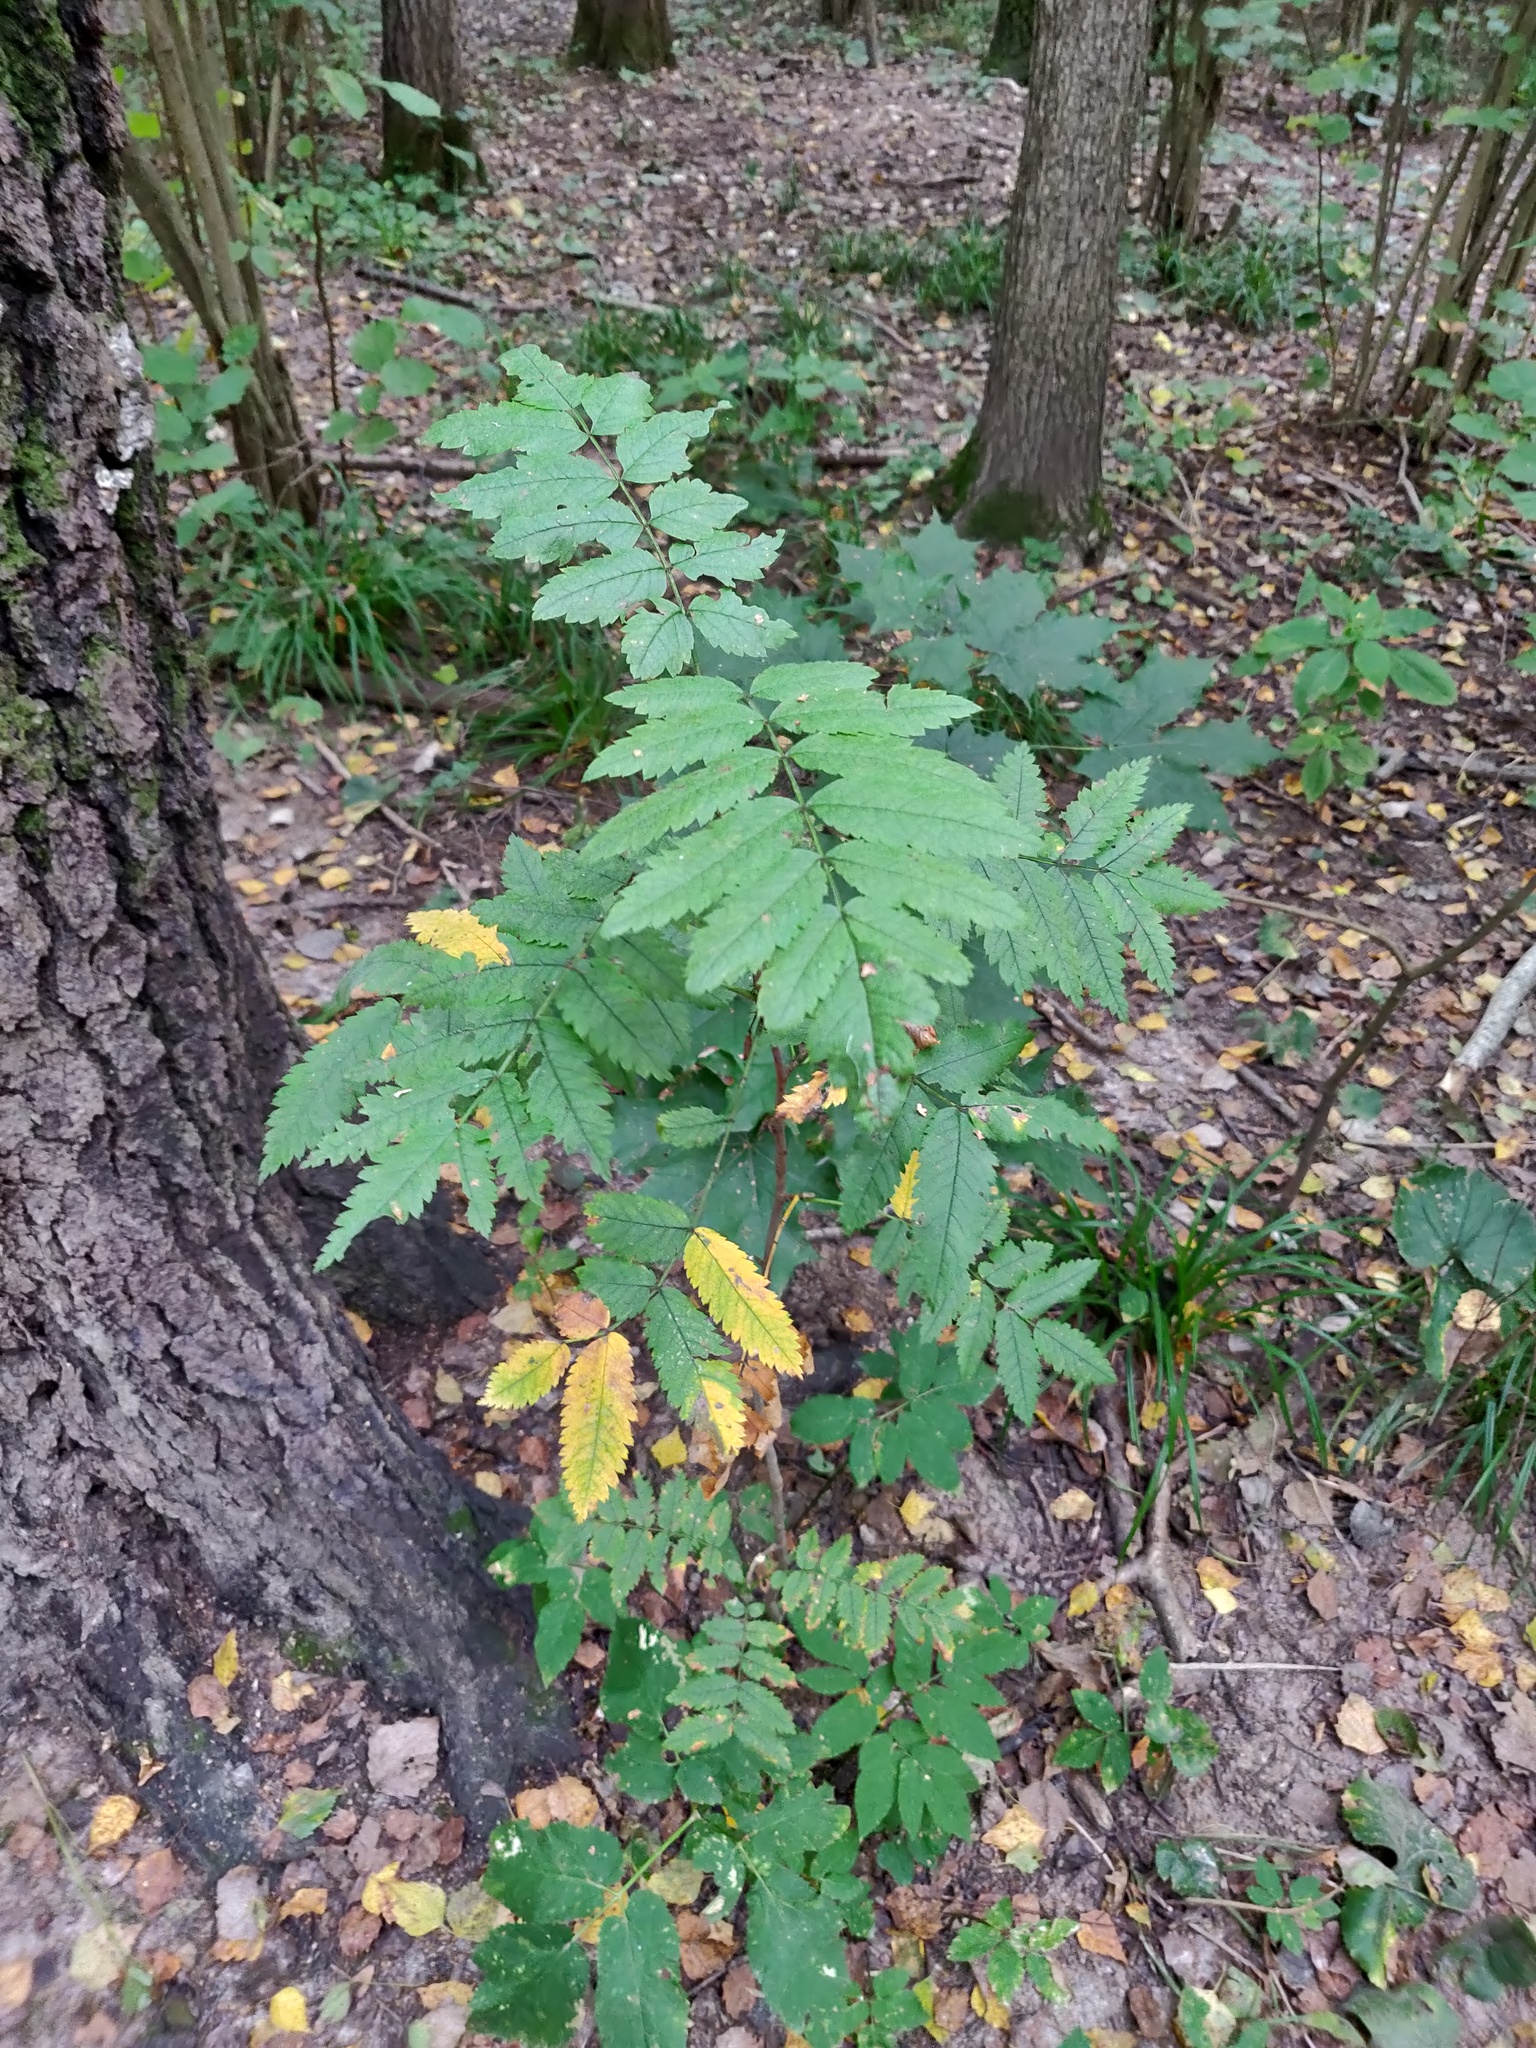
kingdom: Plantae
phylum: Tracheophyta
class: Magnoliopsida
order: Rosales
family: Rosaceae
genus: Sorbus
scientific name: Sorbus aucuparia
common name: Rowan
